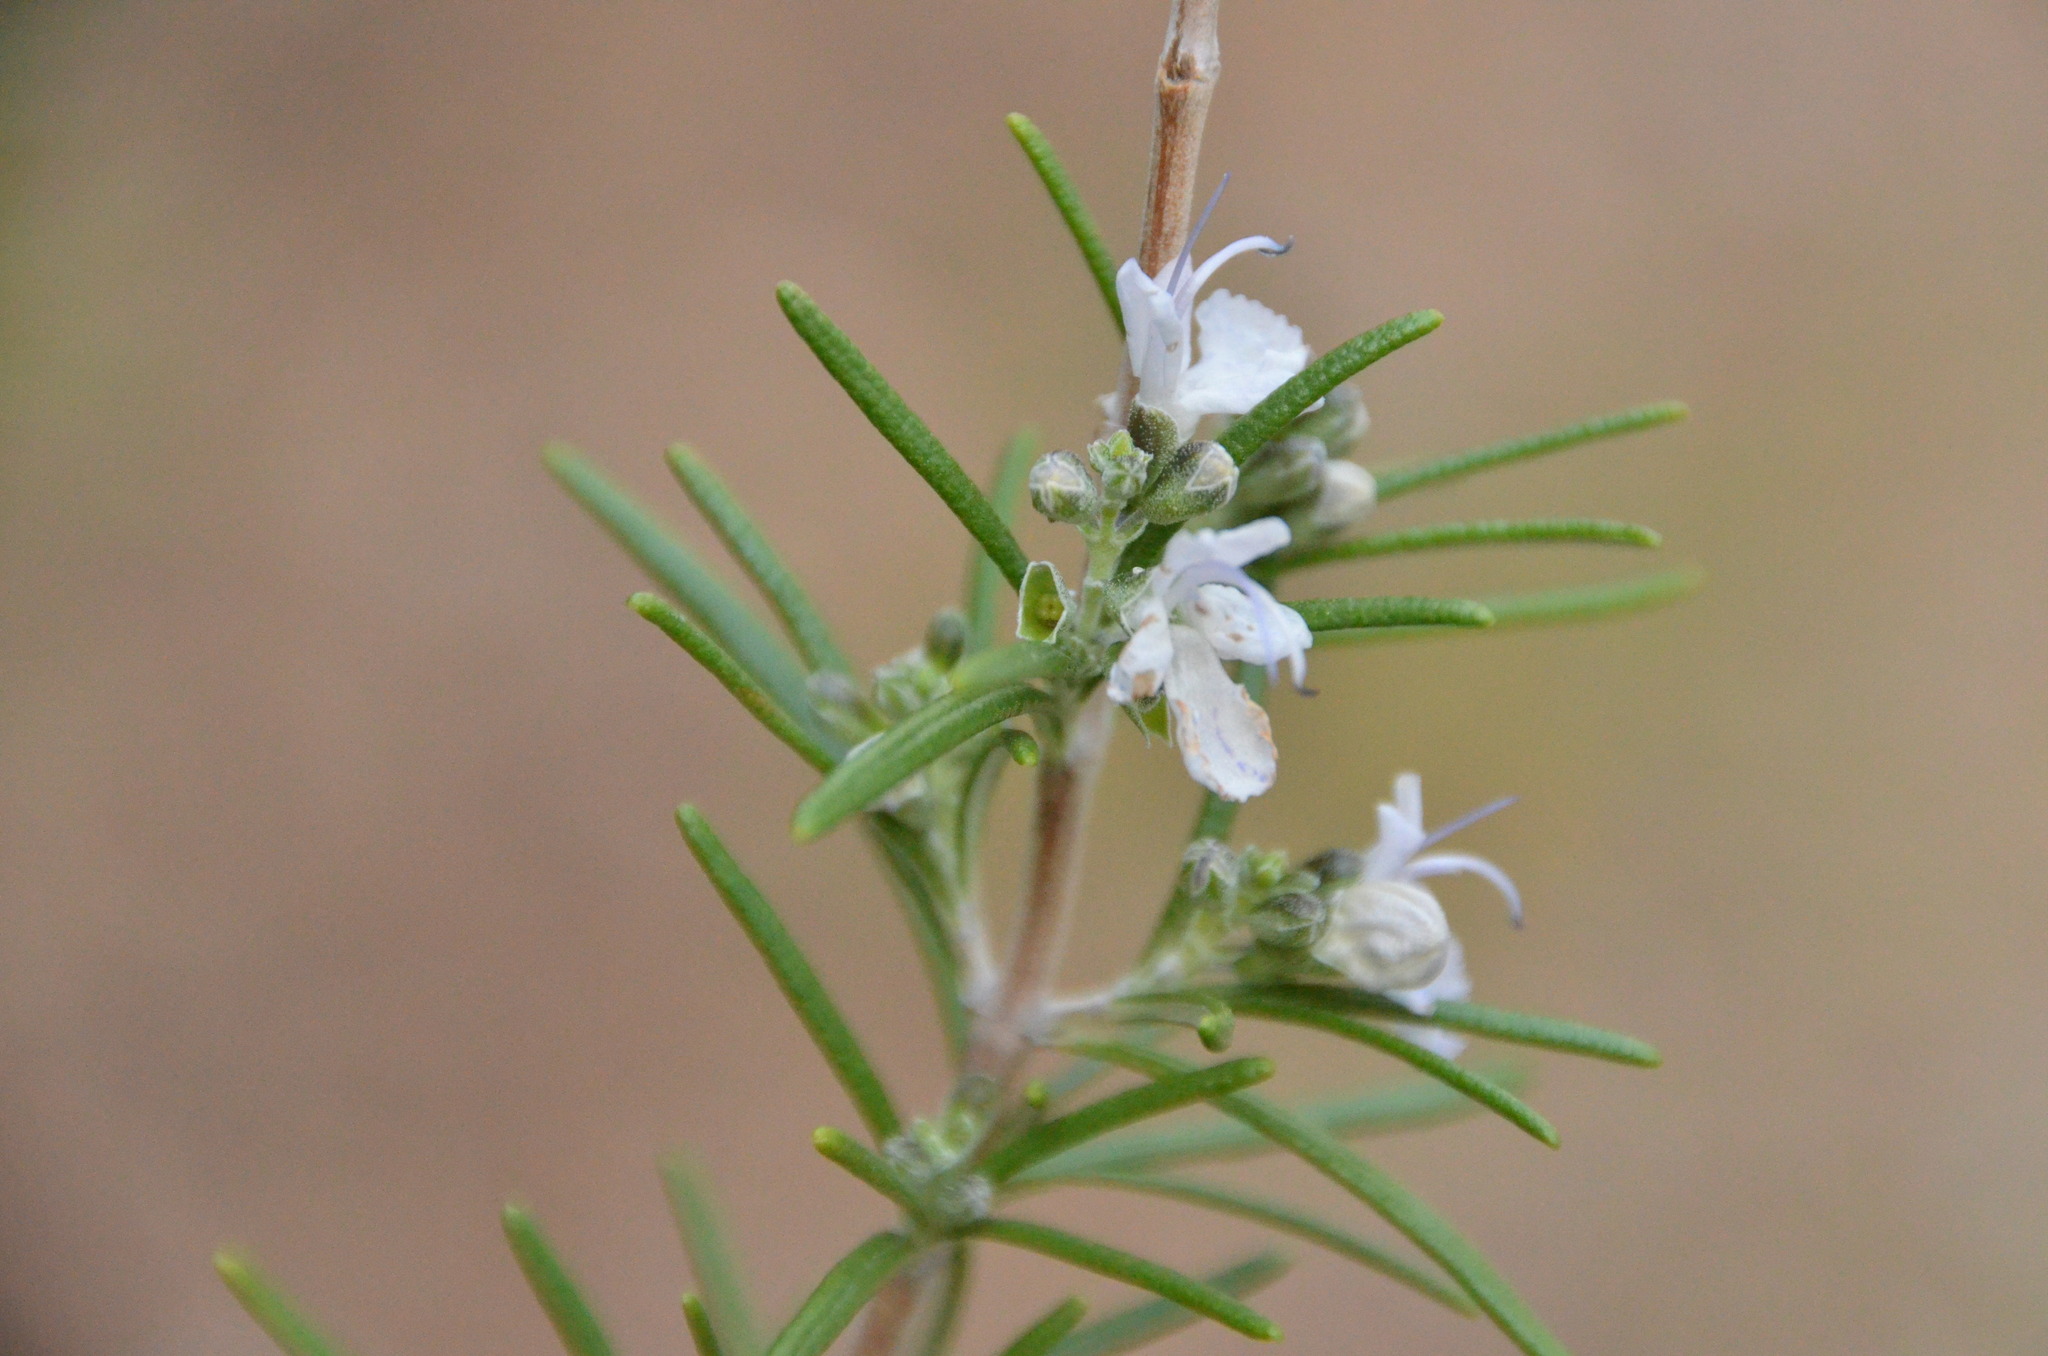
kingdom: Plantae
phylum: Tracheophyta
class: Magnoliopsida
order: Lamiales
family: Lamiaceae
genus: Salvia
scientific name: Salvia rosmarinus
